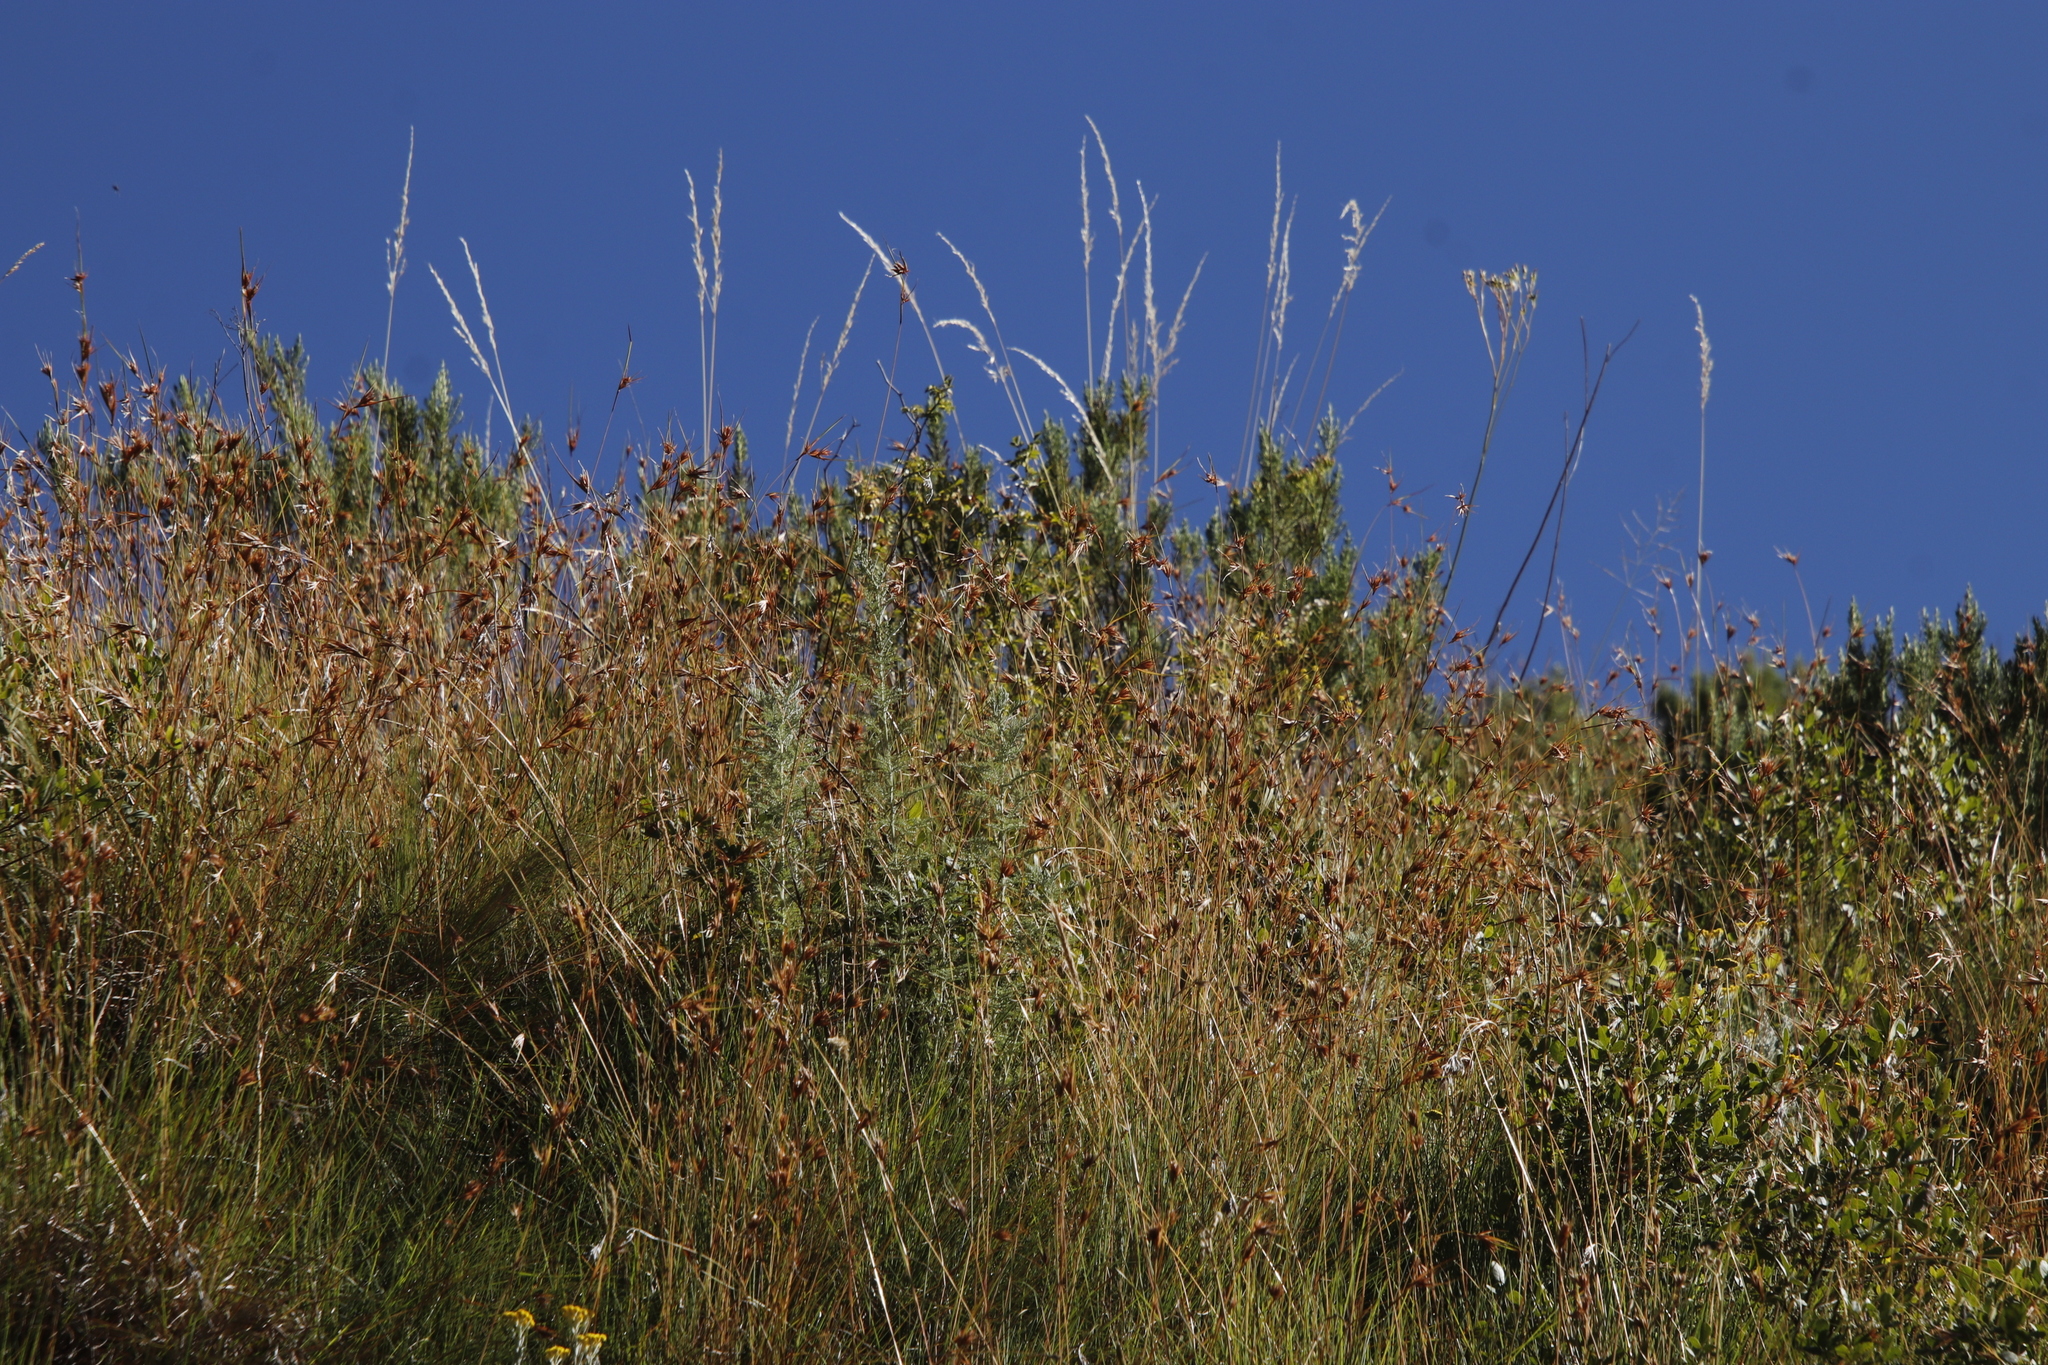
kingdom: Plantae
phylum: Tracheophyta
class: Liliopsida
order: Poales
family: Poaceae
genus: Themeda
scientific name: Themeda triandra
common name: Kangaroo grass
